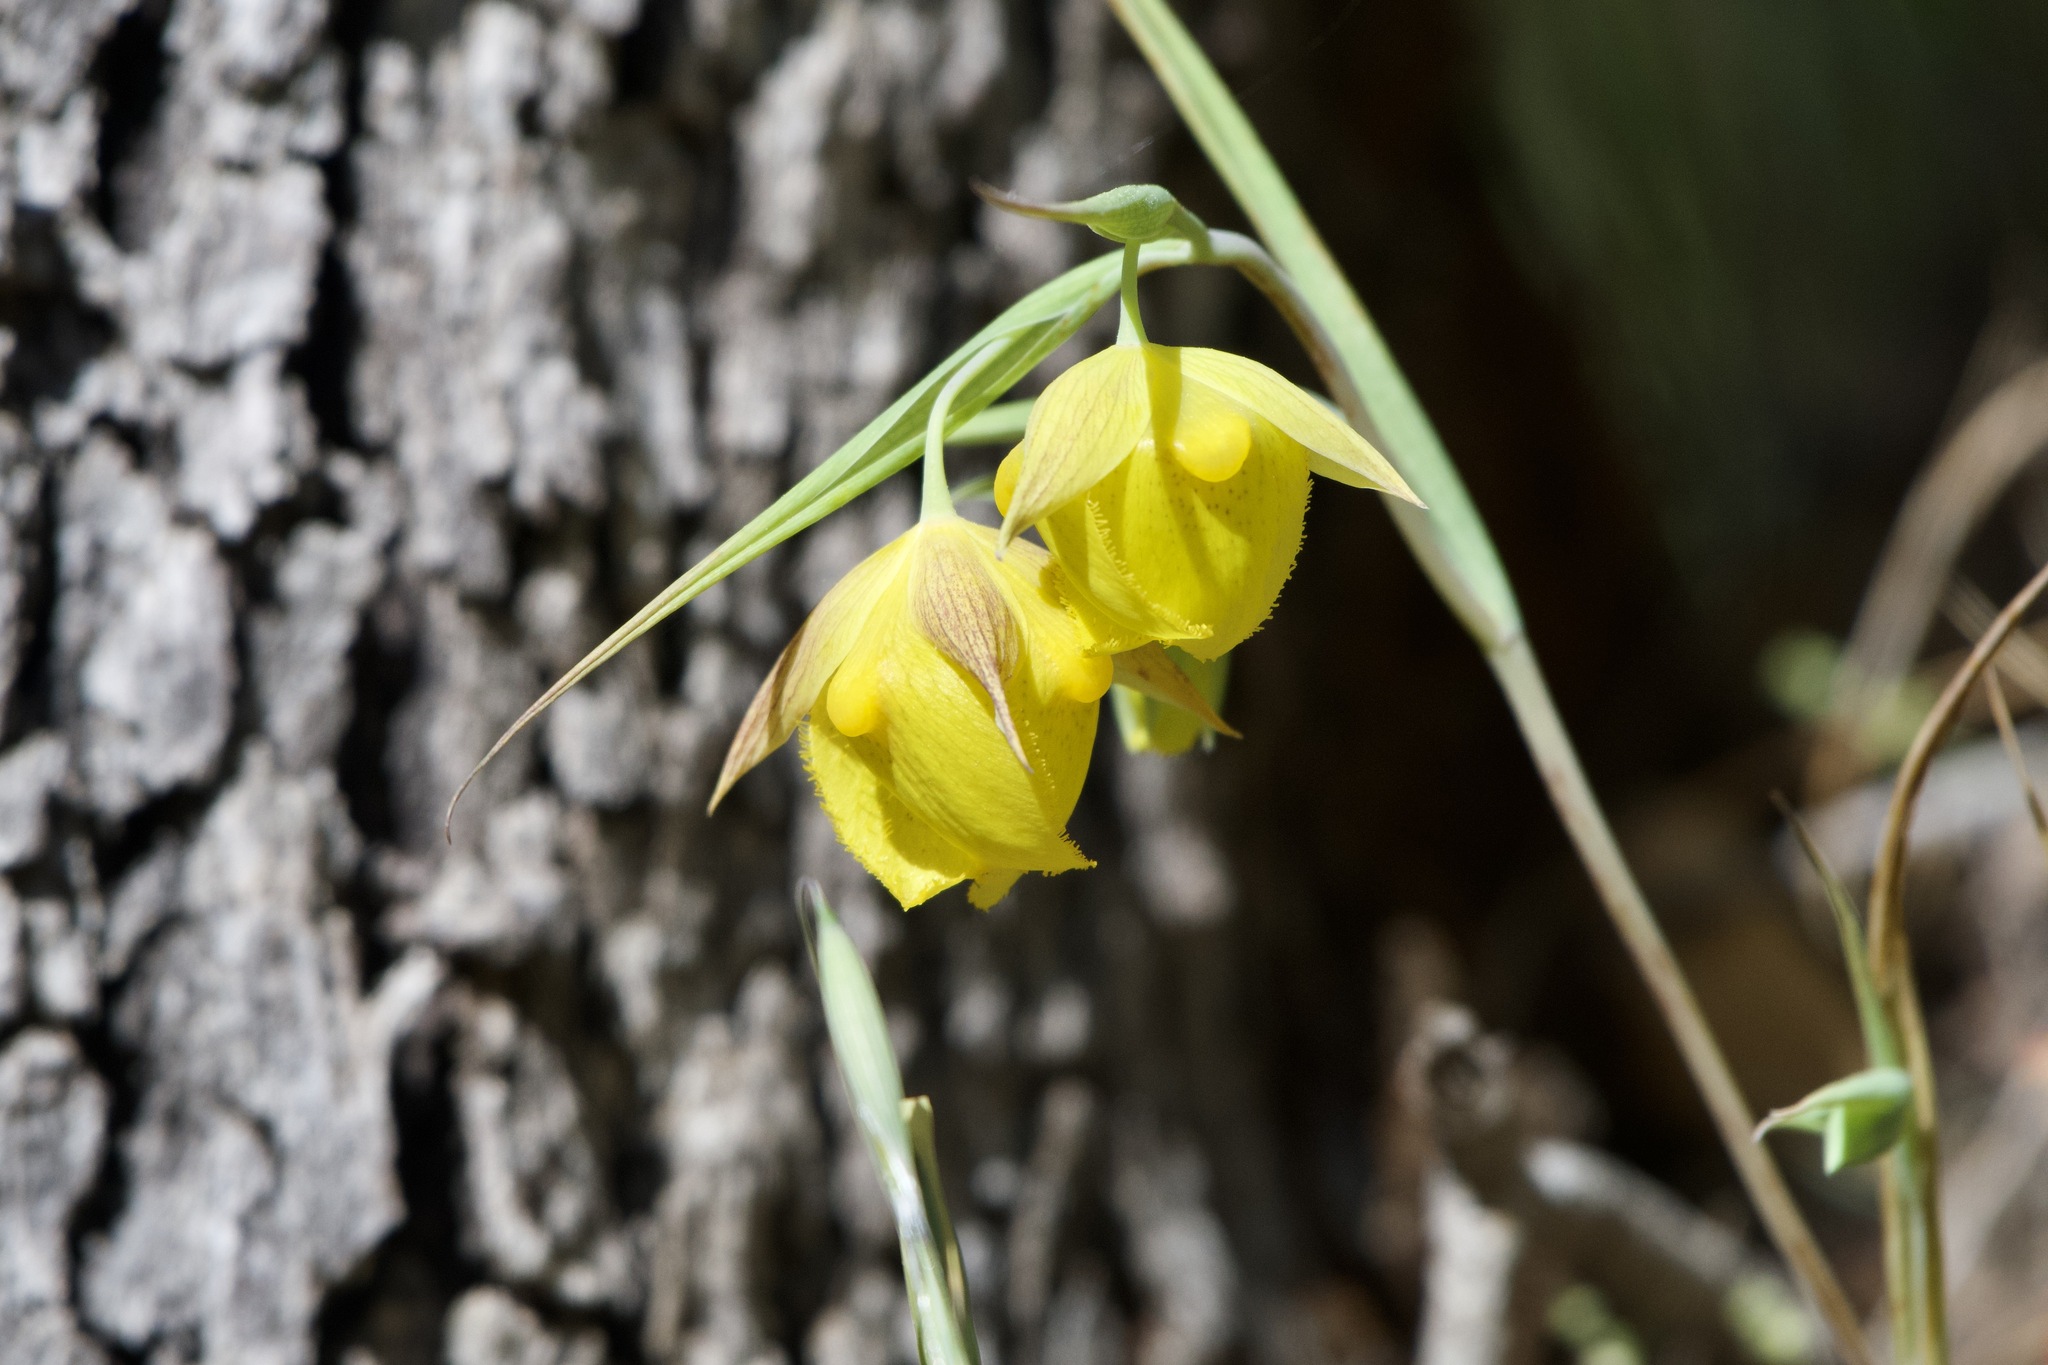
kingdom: Plantae
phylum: Tracheophyta
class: Liliopsida
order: Liliales
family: Liliaceae
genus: Calochortus
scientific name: Calochortus pulchellus
